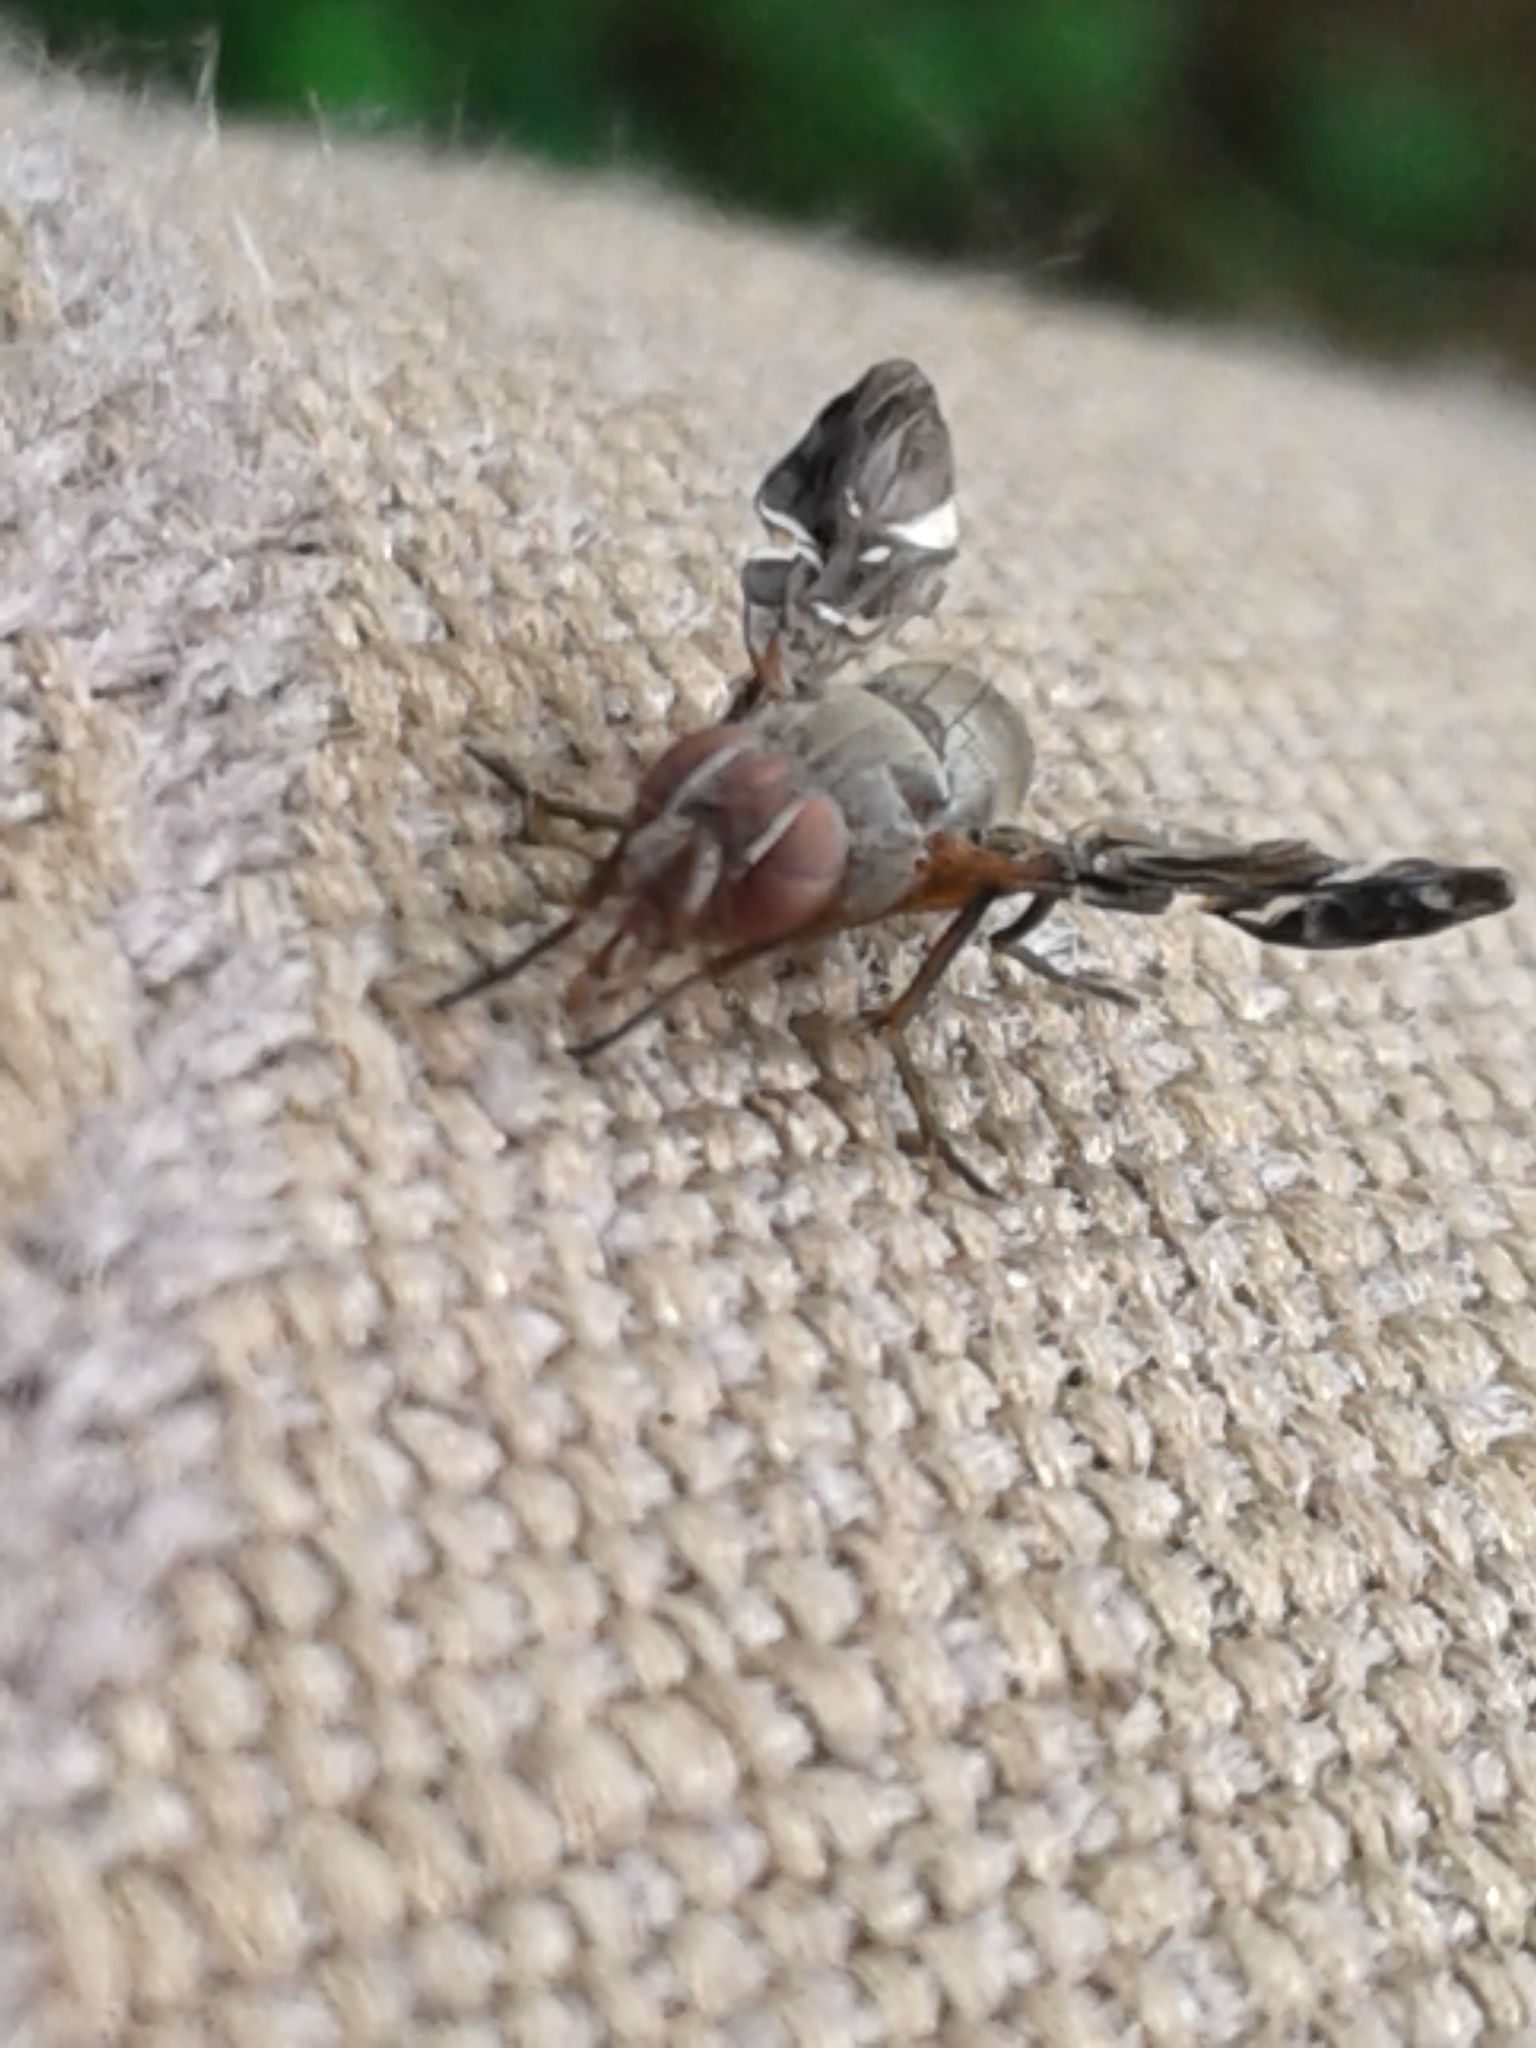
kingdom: Animalia
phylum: Arthropoda
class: Insecta
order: Diptera
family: Ulidiidae
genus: Delphinia
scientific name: Delphinia picta
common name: Common picture-winged fly
